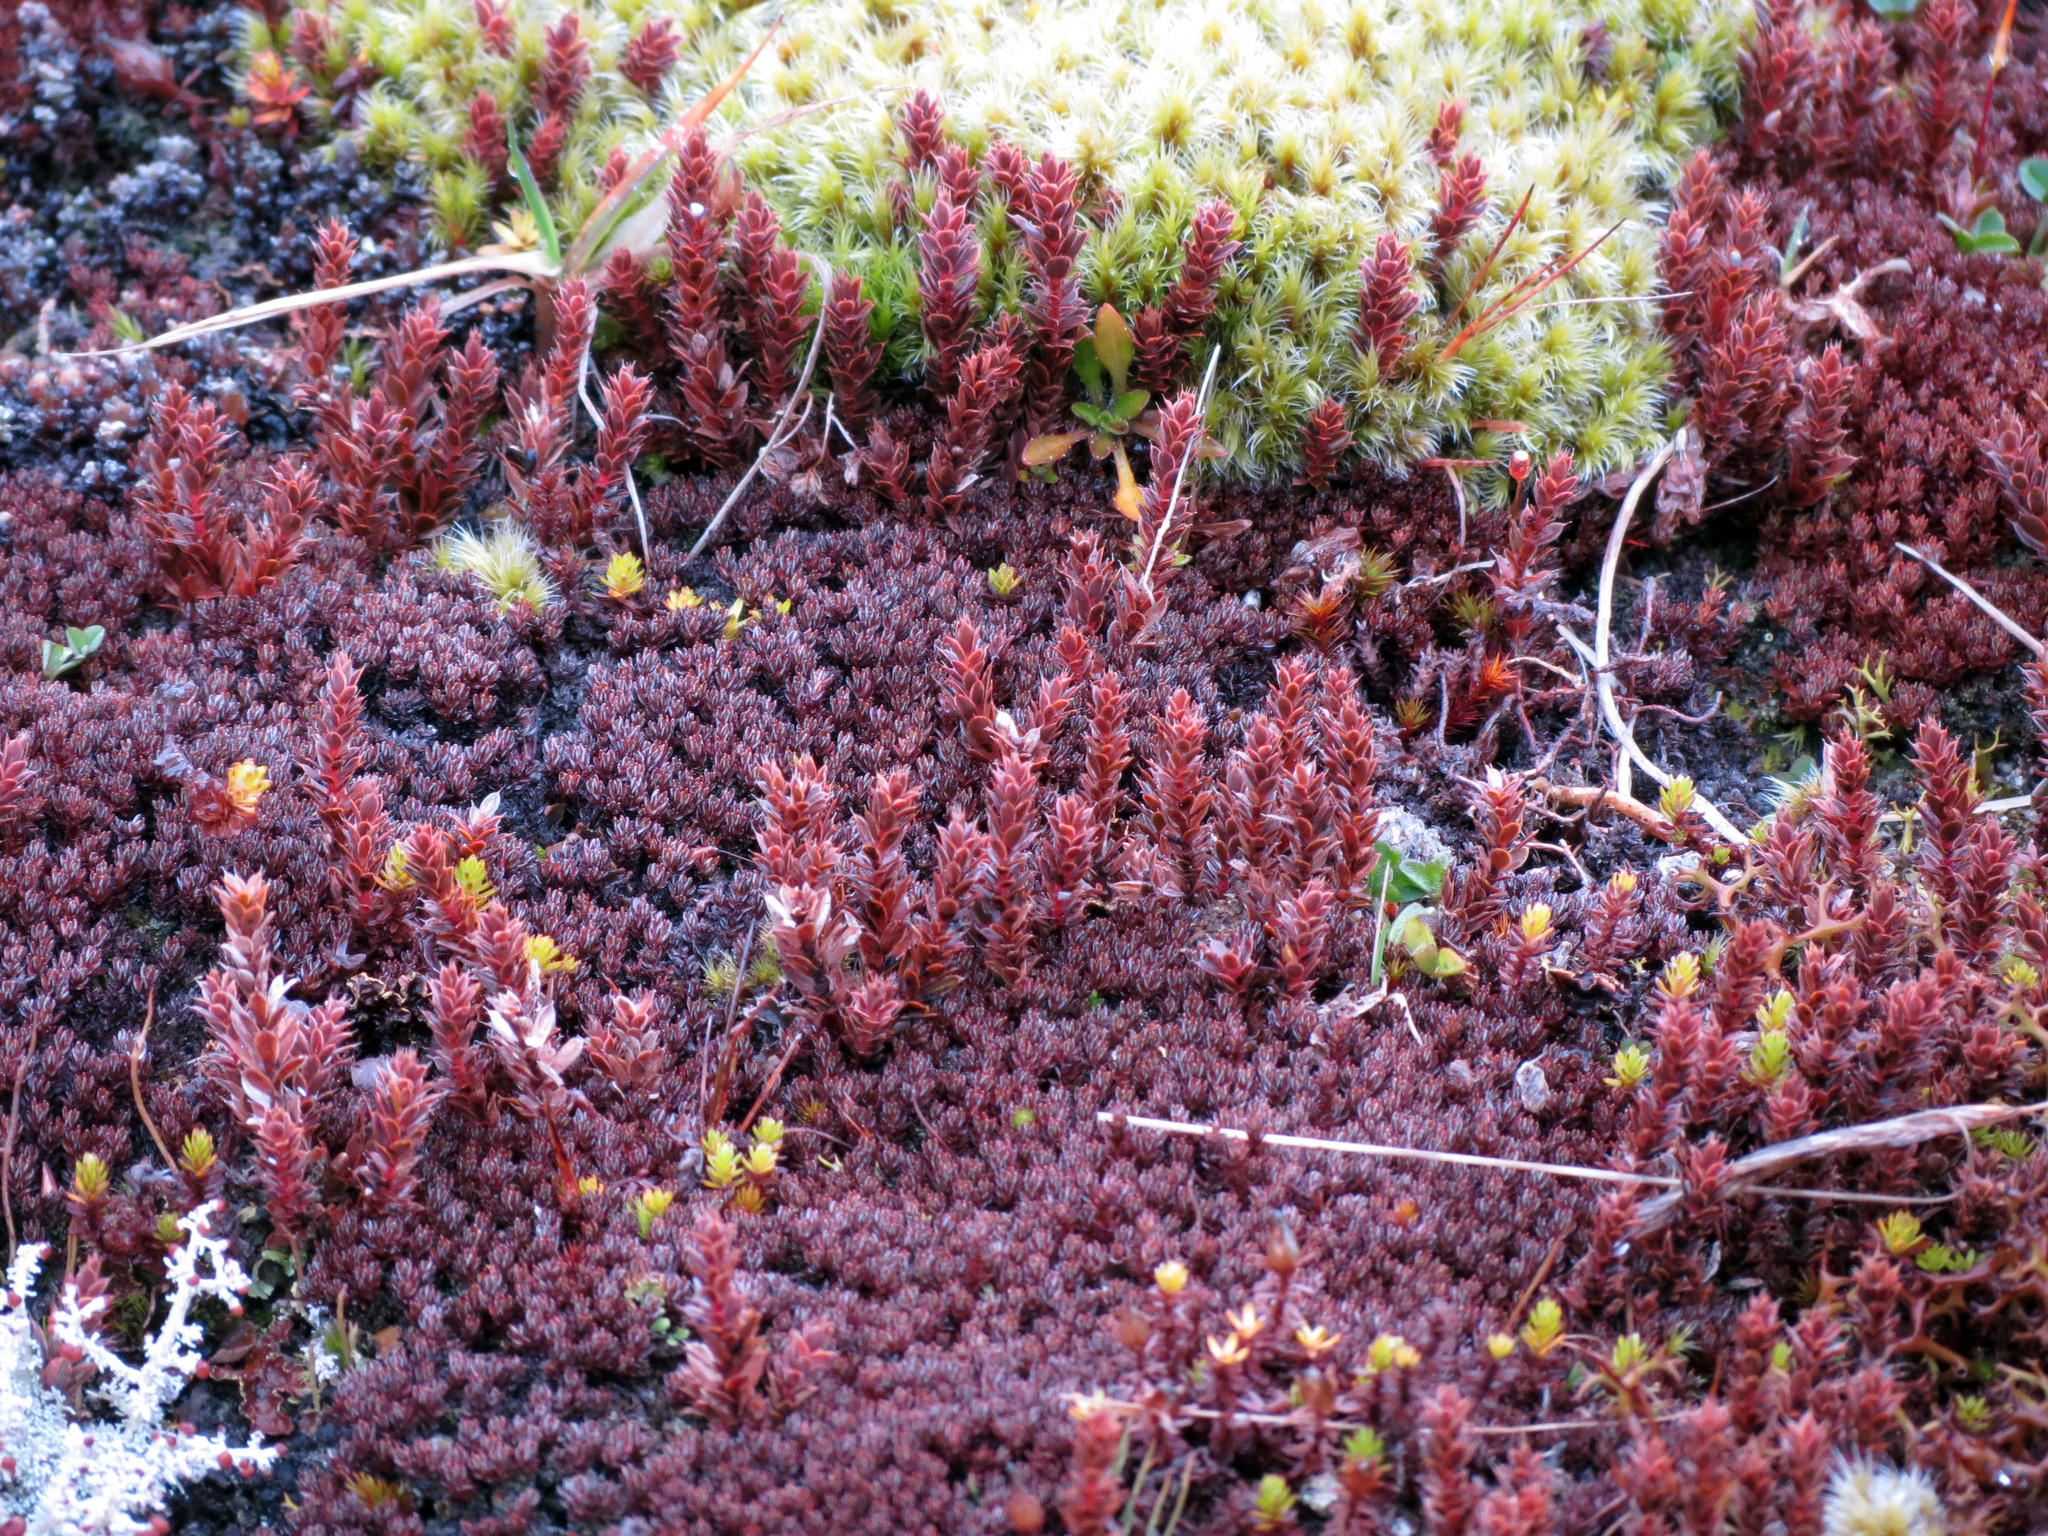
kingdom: Plantae
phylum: Tracheophyta
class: Magnoliopsida
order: Ericales
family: Ericaceae
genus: Styphelia
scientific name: Styphelia nesophila
